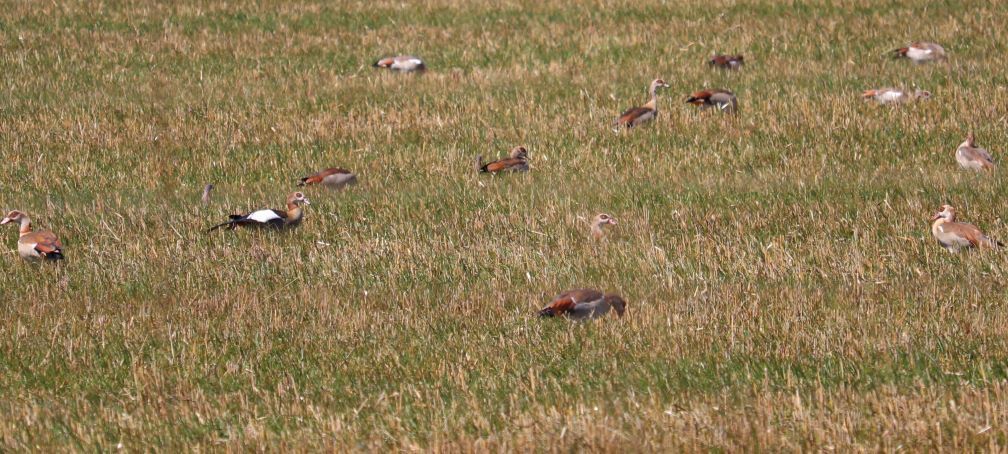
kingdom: Animalia
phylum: Chordata
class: Aves
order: Anseriformes
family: Anatidae
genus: Alopochen
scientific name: Alopochen aegyptiaca
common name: Egyptian goose
